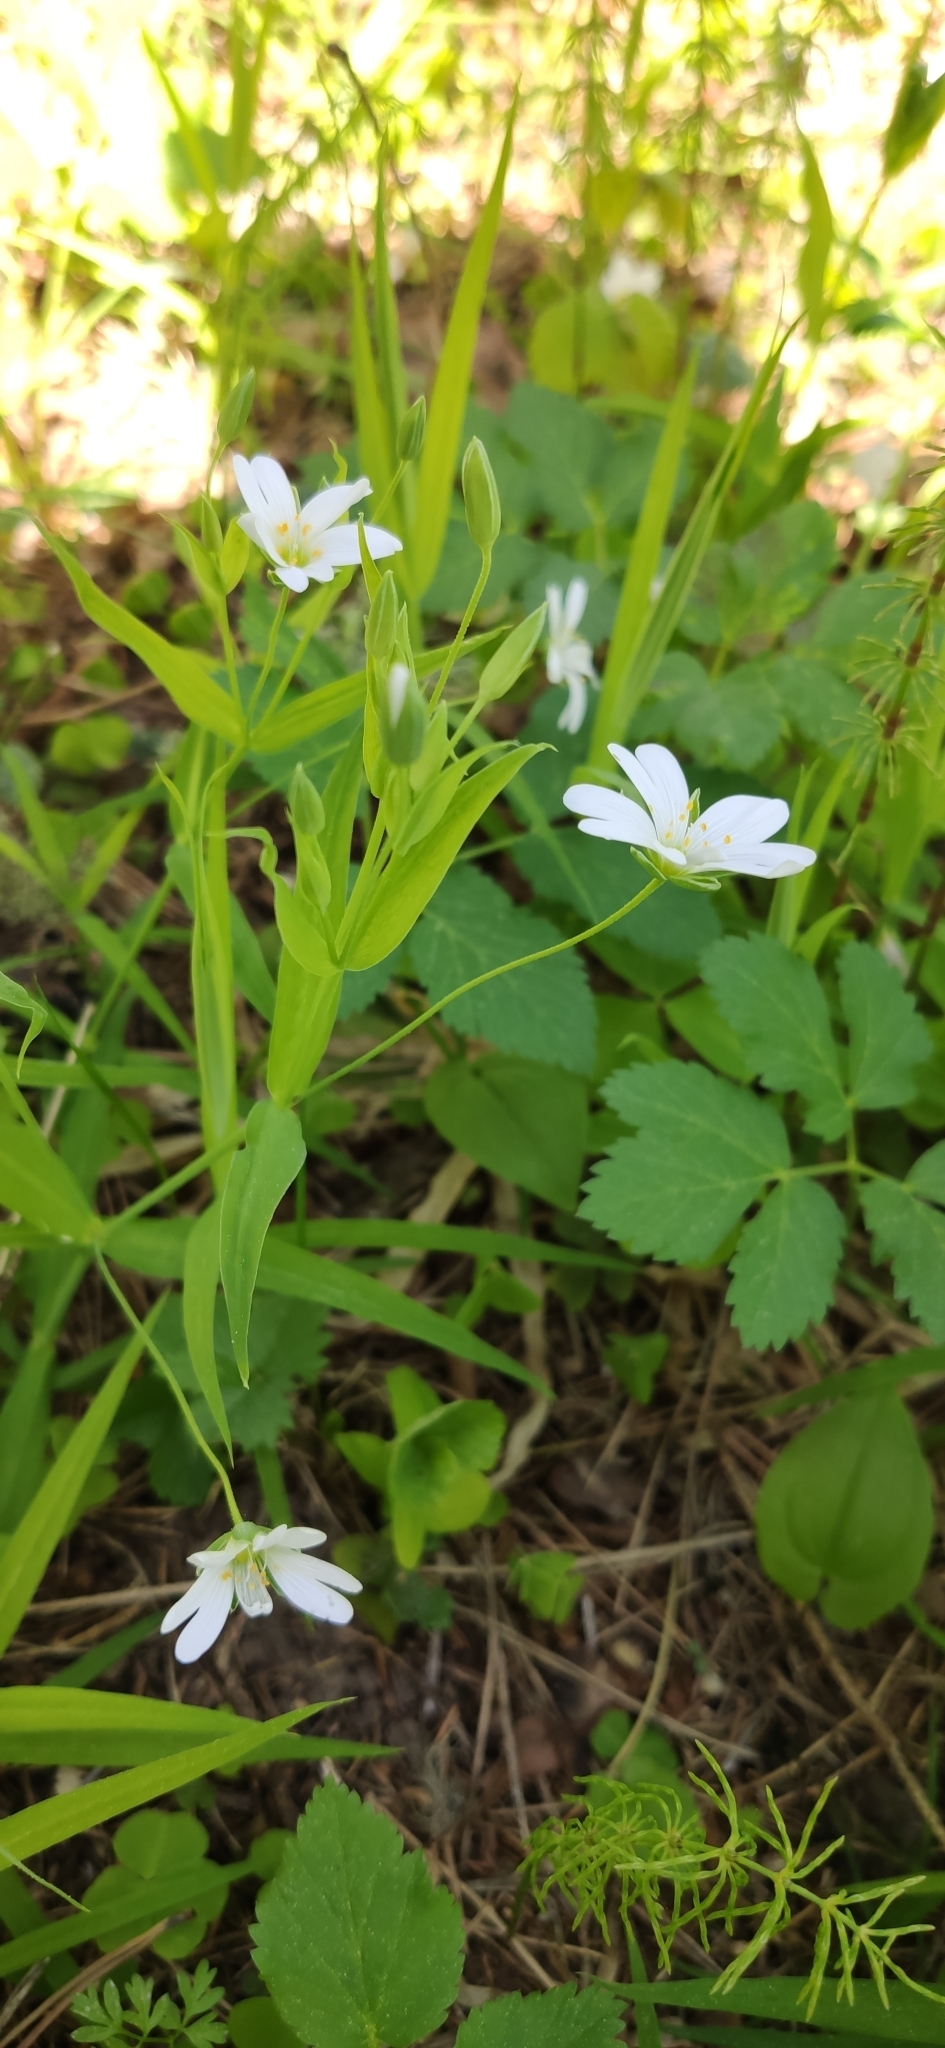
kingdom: Plantae
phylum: Tracheophyta
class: Magnoliopsida
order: Caryophyllales
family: Caryophyllaceae
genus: Rabelera
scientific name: Rabelera holostea
